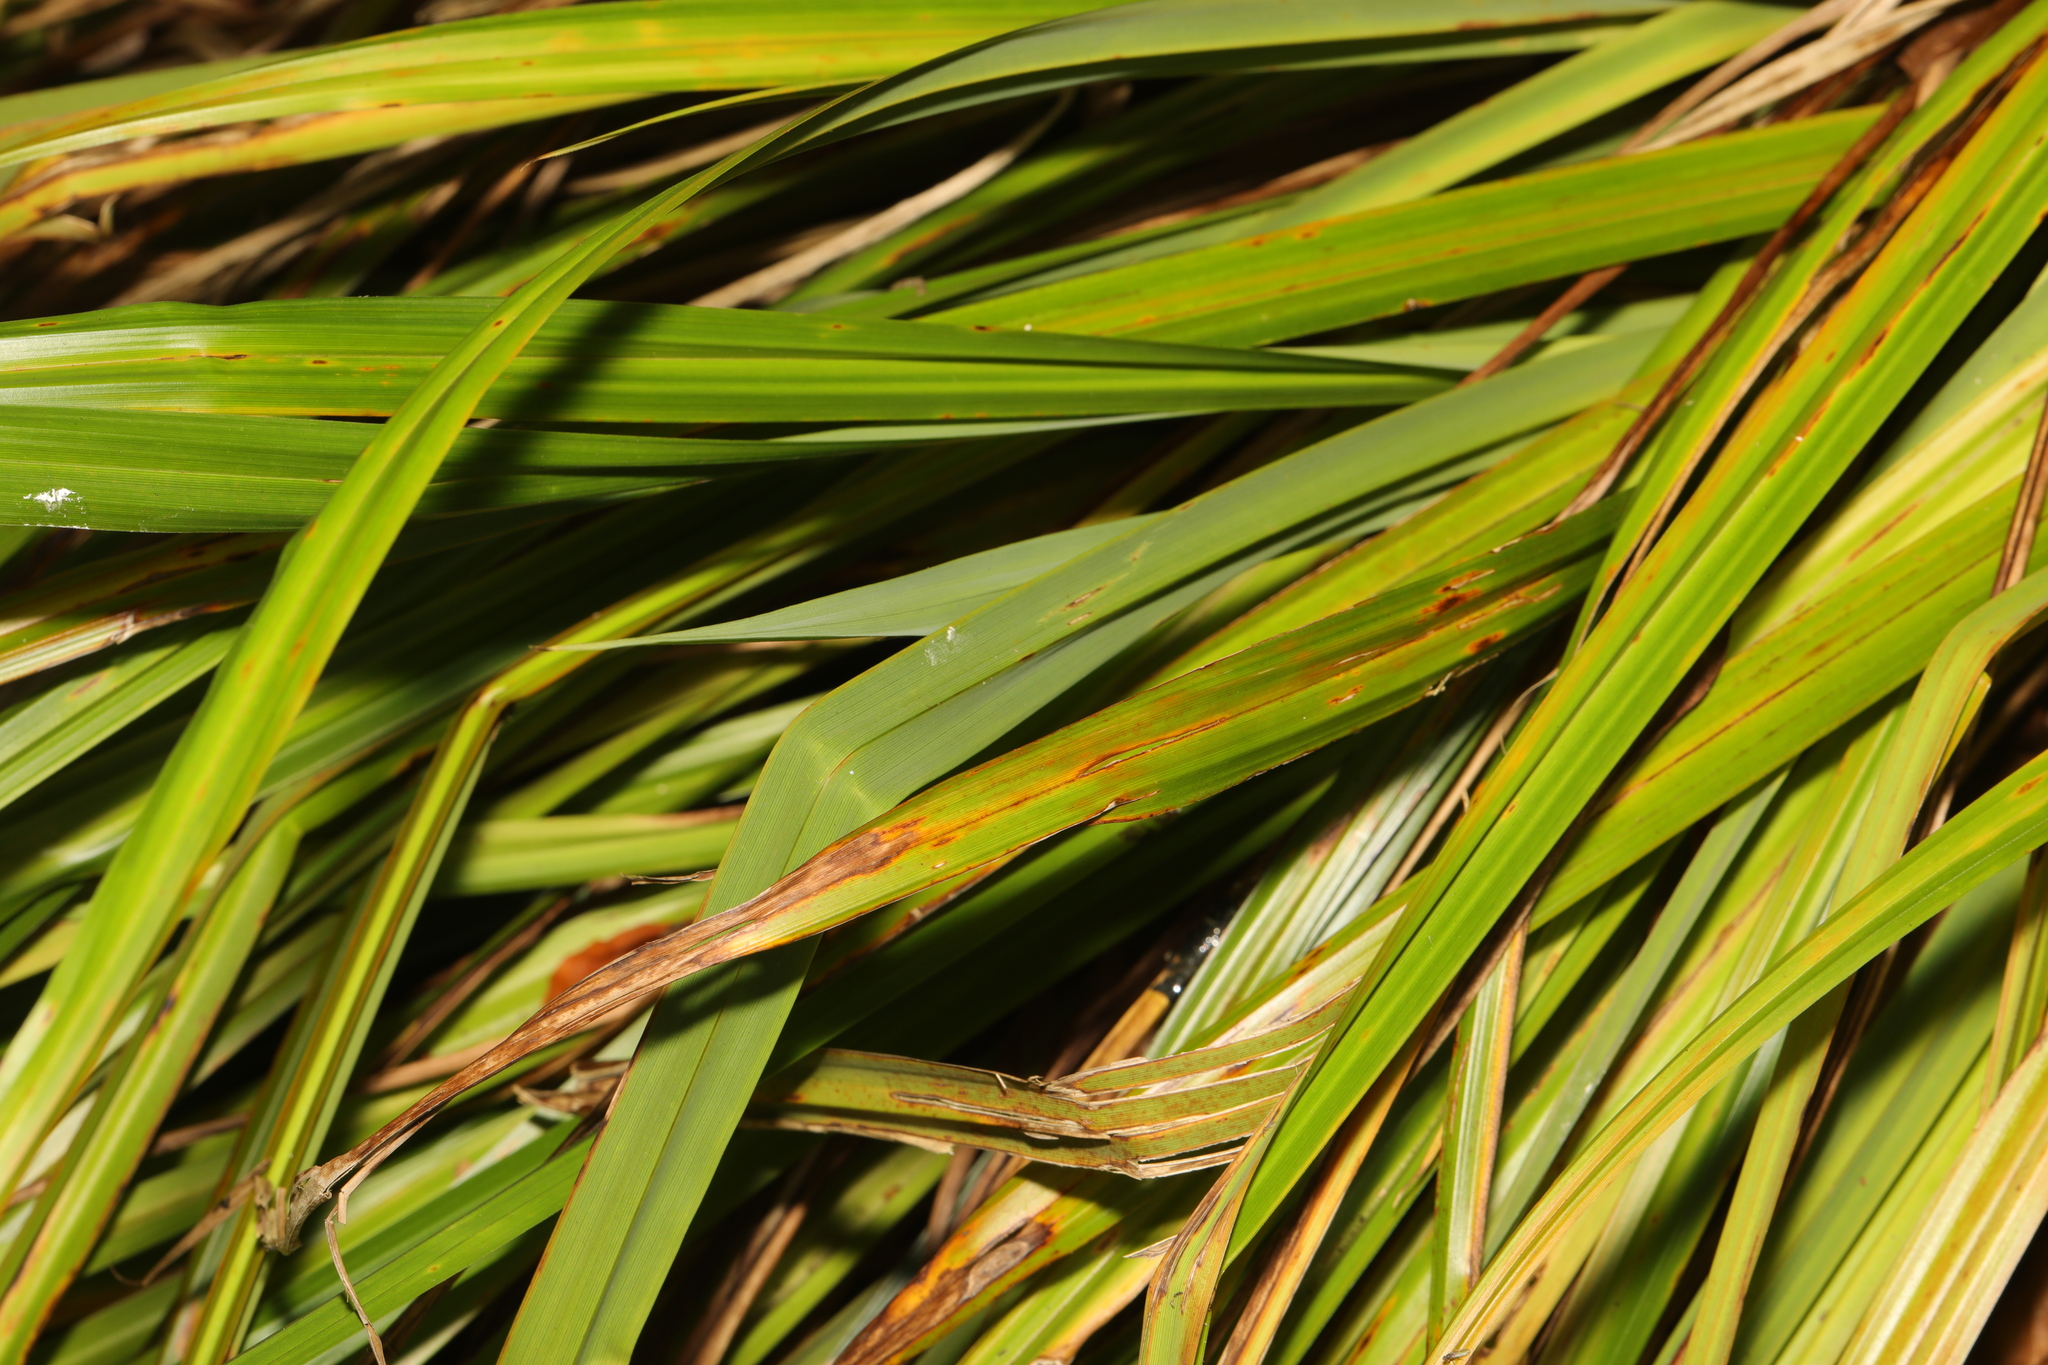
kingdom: Plantae
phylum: Tracheophyta
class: Liliopsida
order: Poales
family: Cyperaceae
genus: Carex
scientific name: Carex pendula
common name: Pendulous sedge
